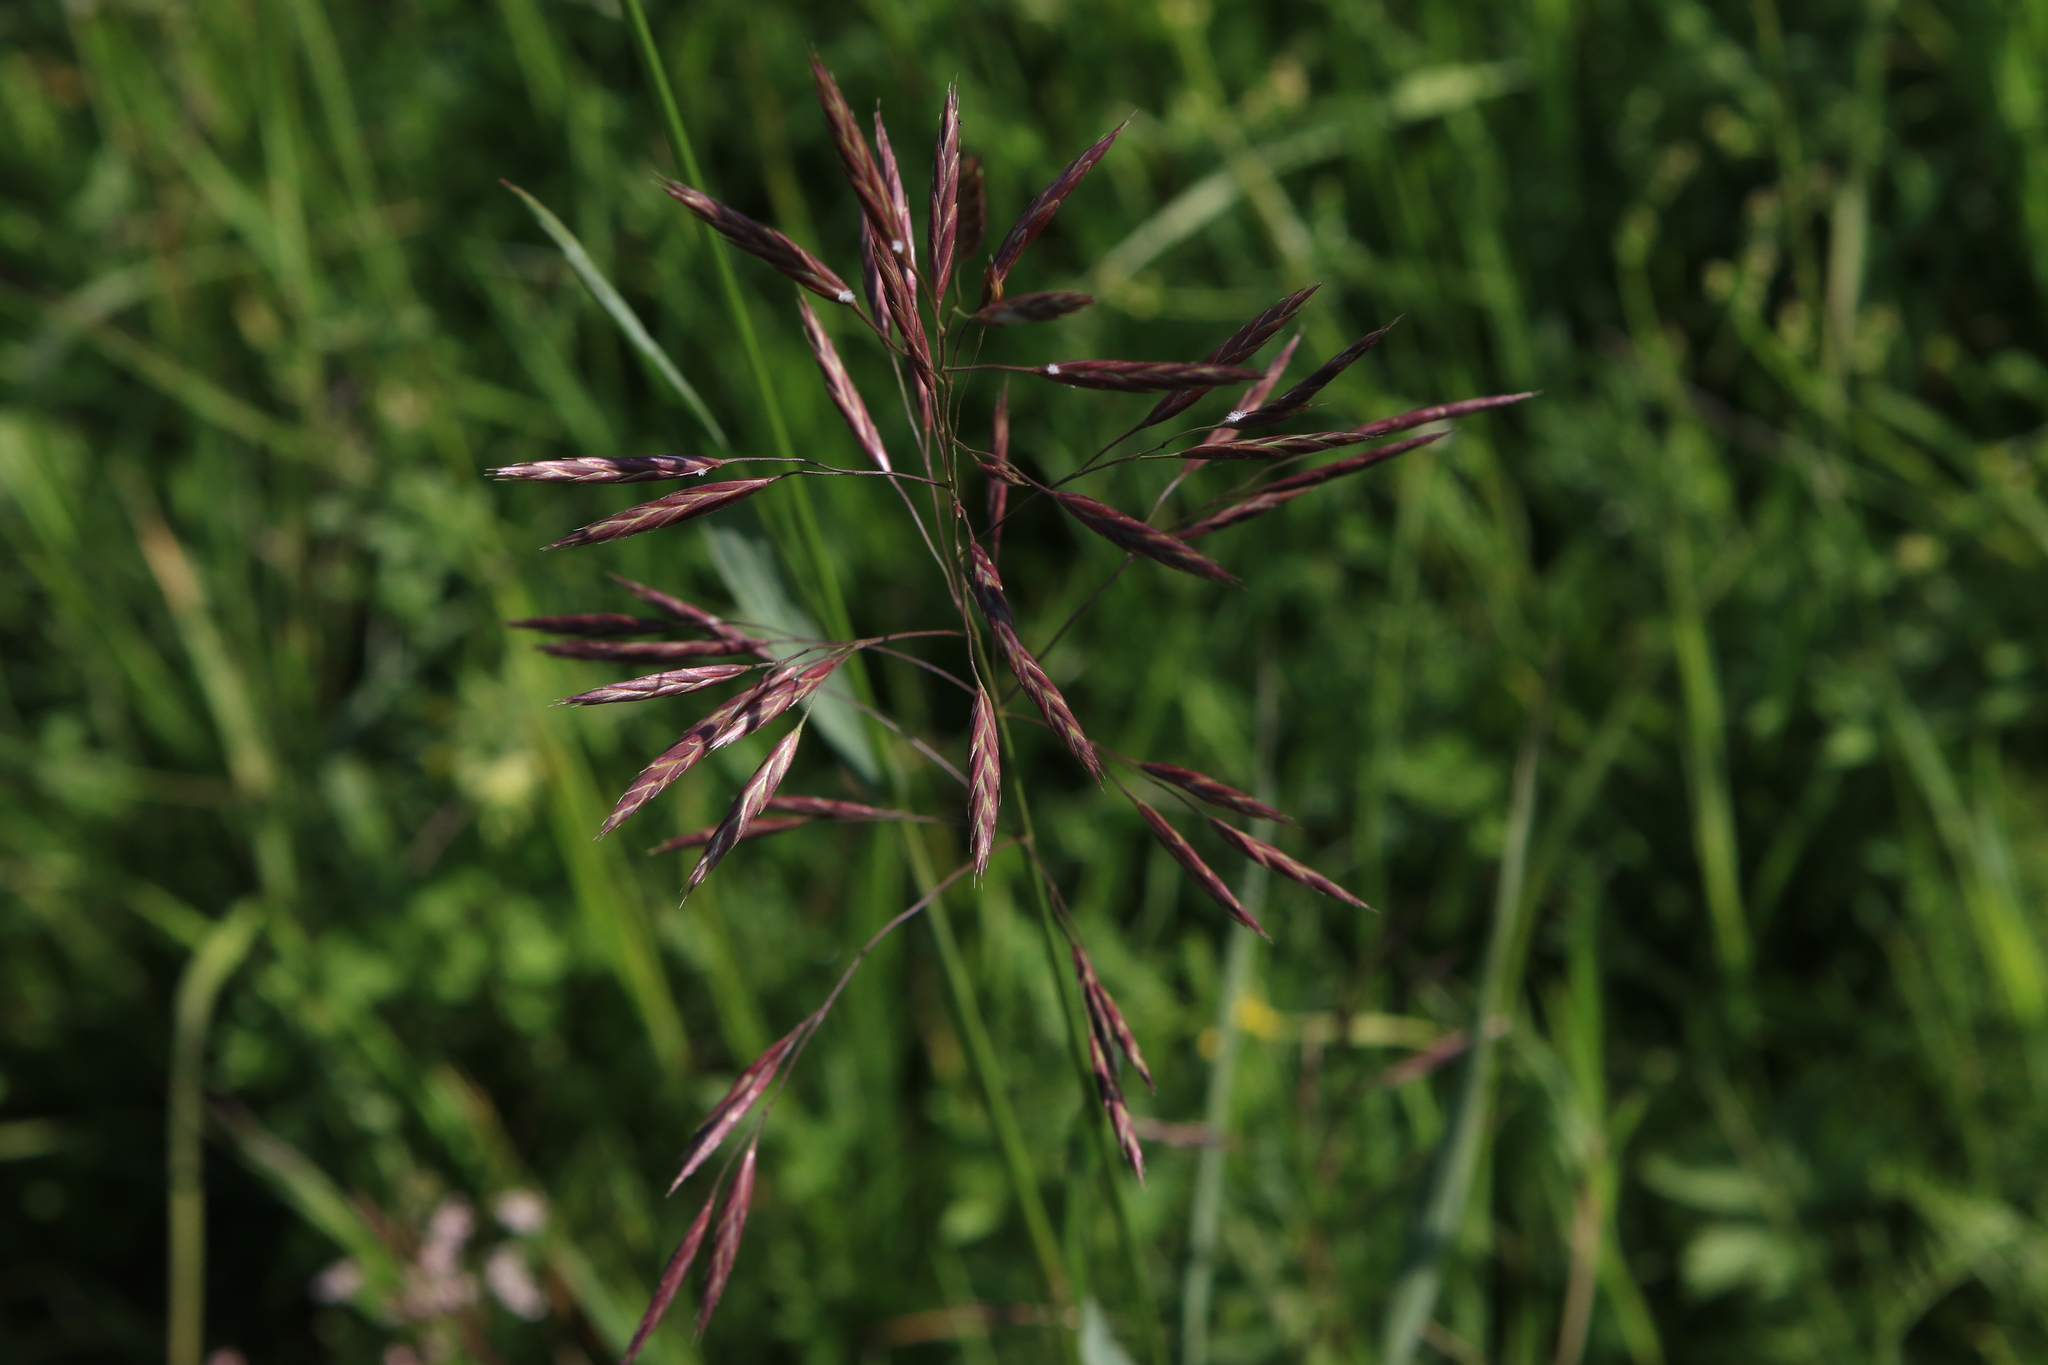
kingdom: Plantae
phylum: Tracheophyta
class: Liliopsida
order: Poales
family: Poaceae
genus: Bromus
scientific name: Bromus inermis
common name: Smooth brome
